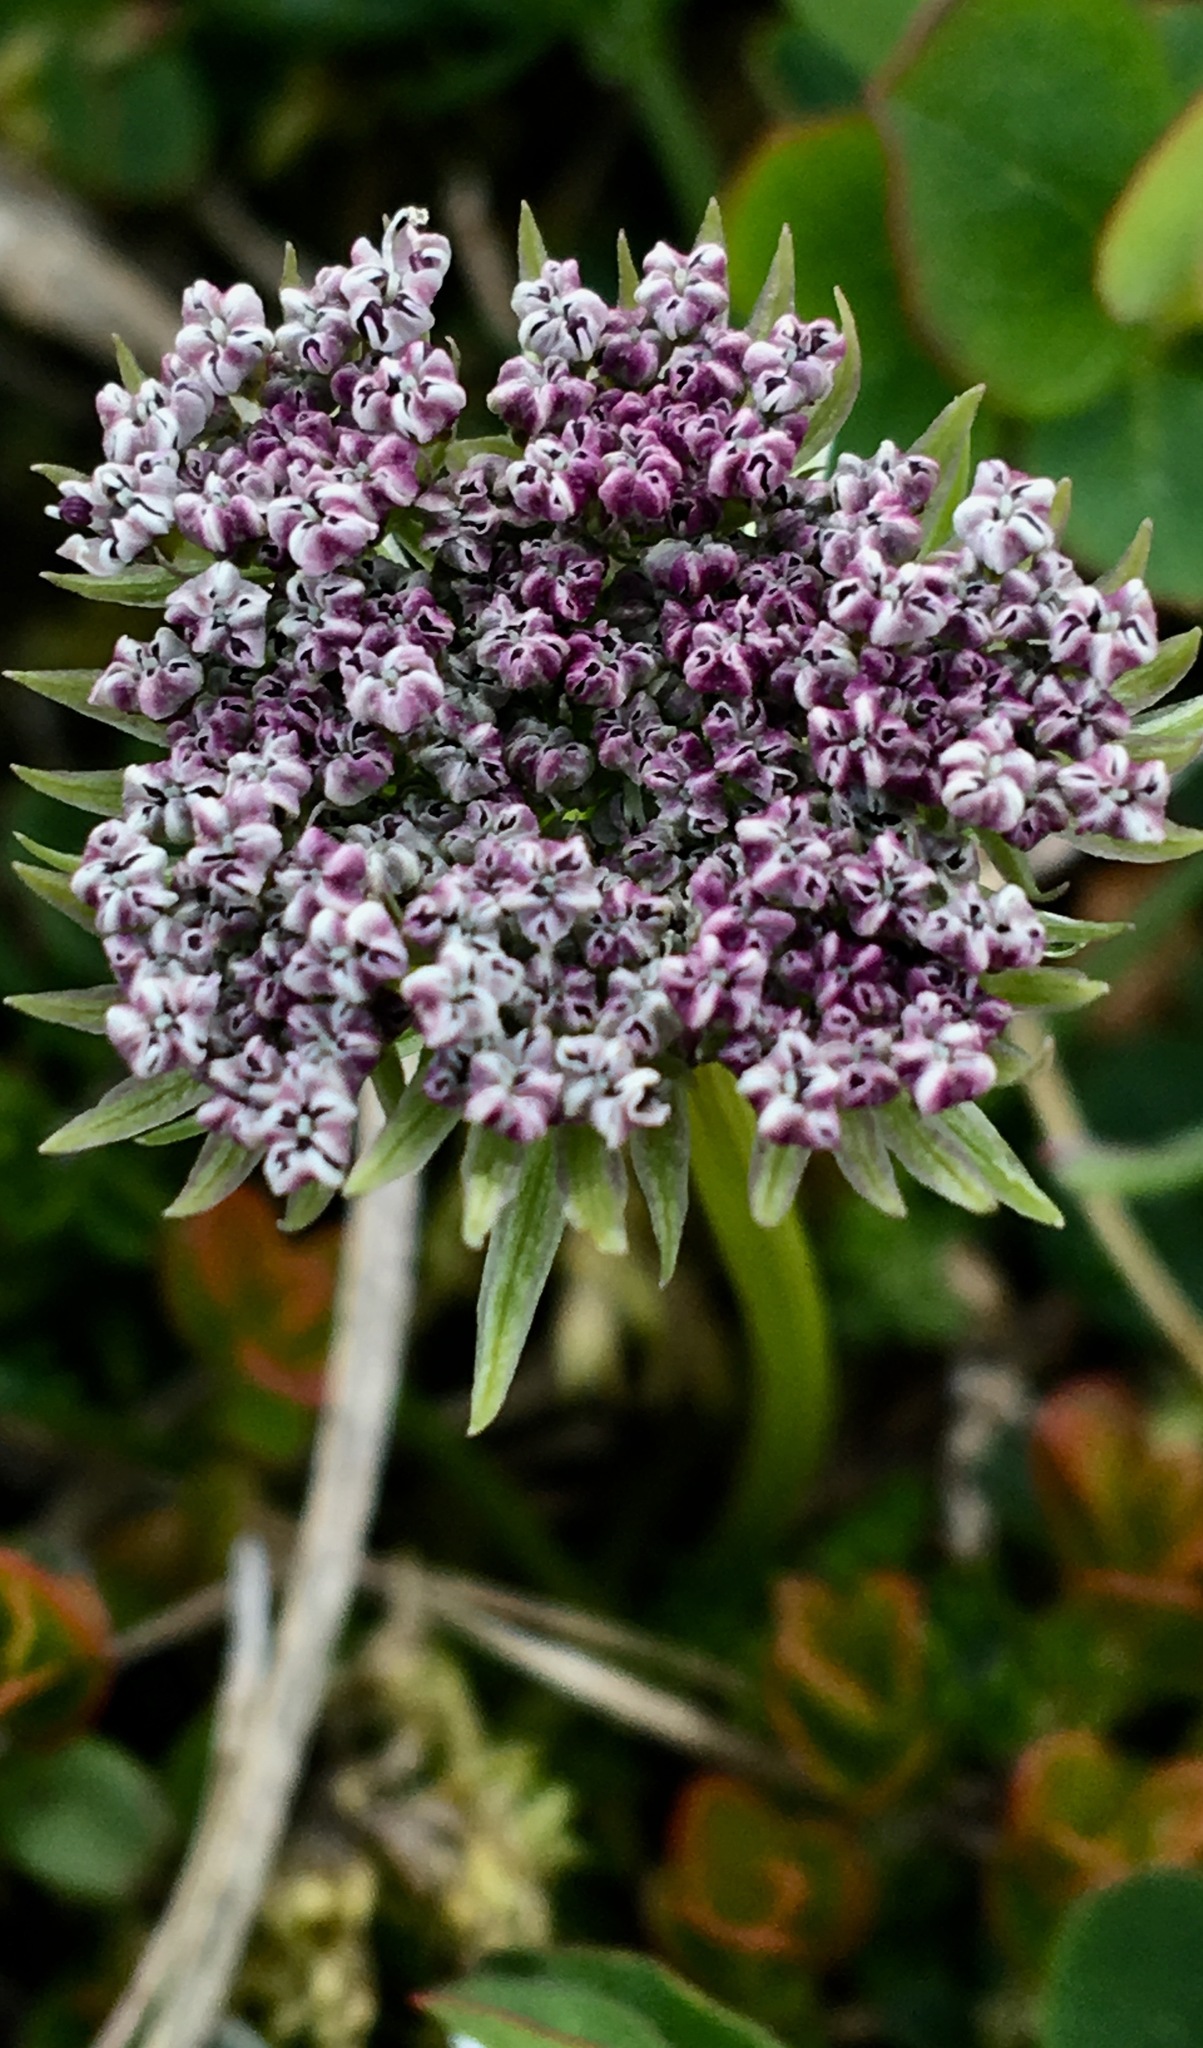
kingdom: Plantae
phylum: Tracheophyta
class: Magnoliopsida
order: Apiales
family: Apiaceae
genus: Pachypleurum
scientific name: Pachypleurum mutellinoides
